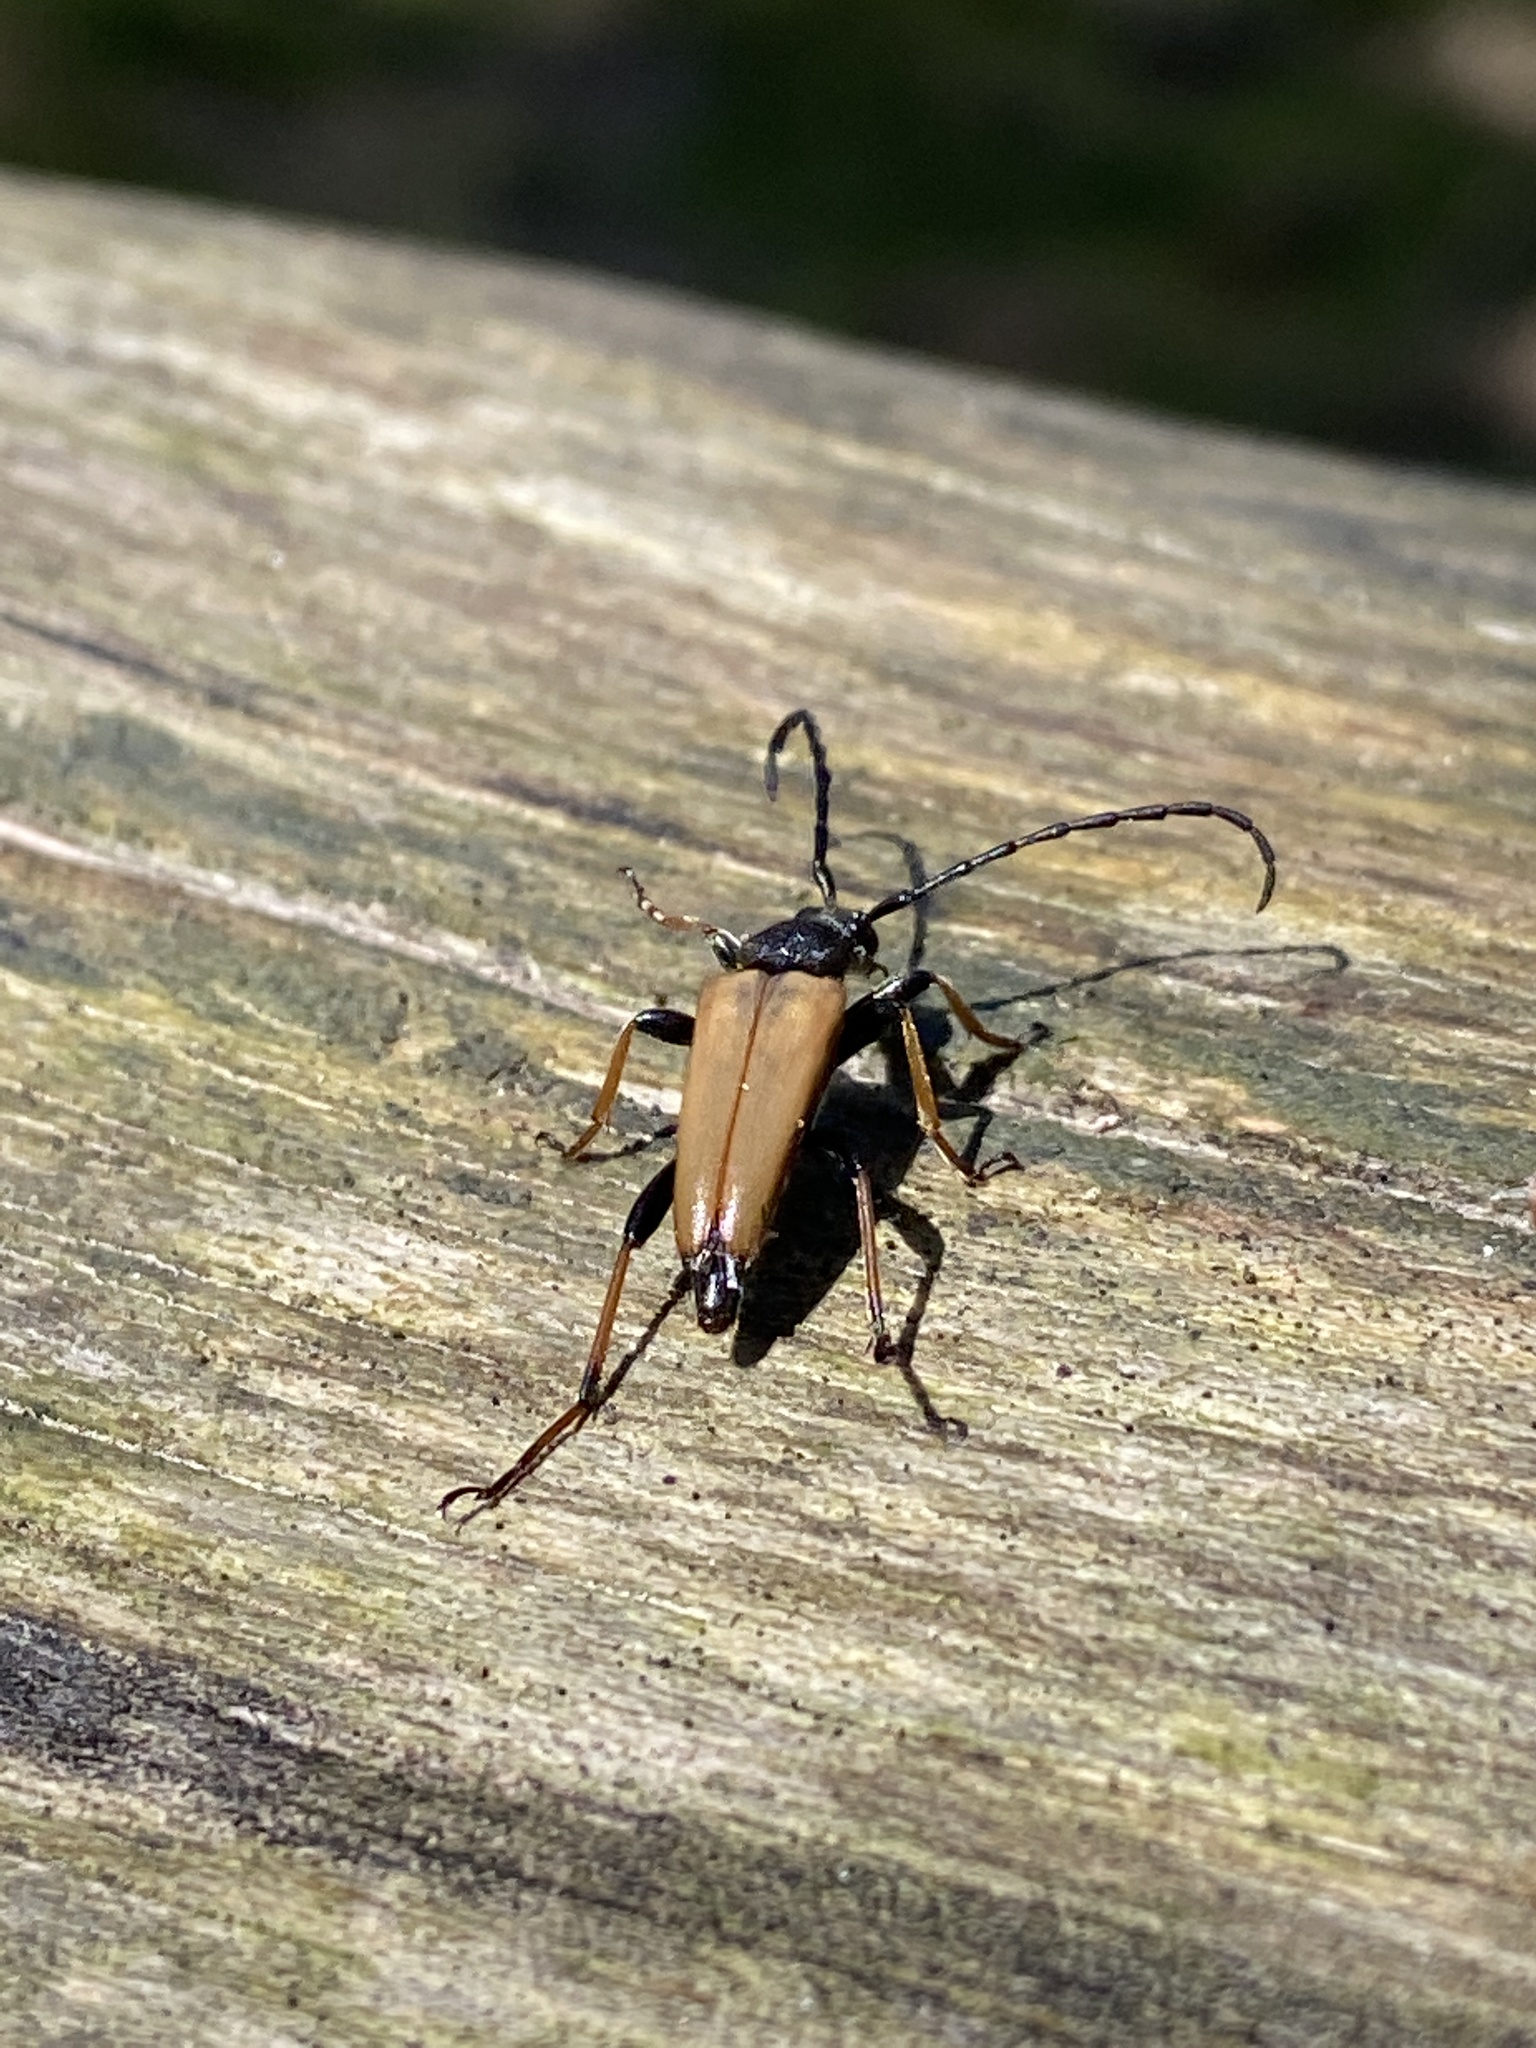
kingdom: Animalia
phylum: Arthropoda
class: Insecta
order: Coleoptera
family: Cerambycidae
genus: Stictoleptura
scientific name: Stictoleptura rubra
